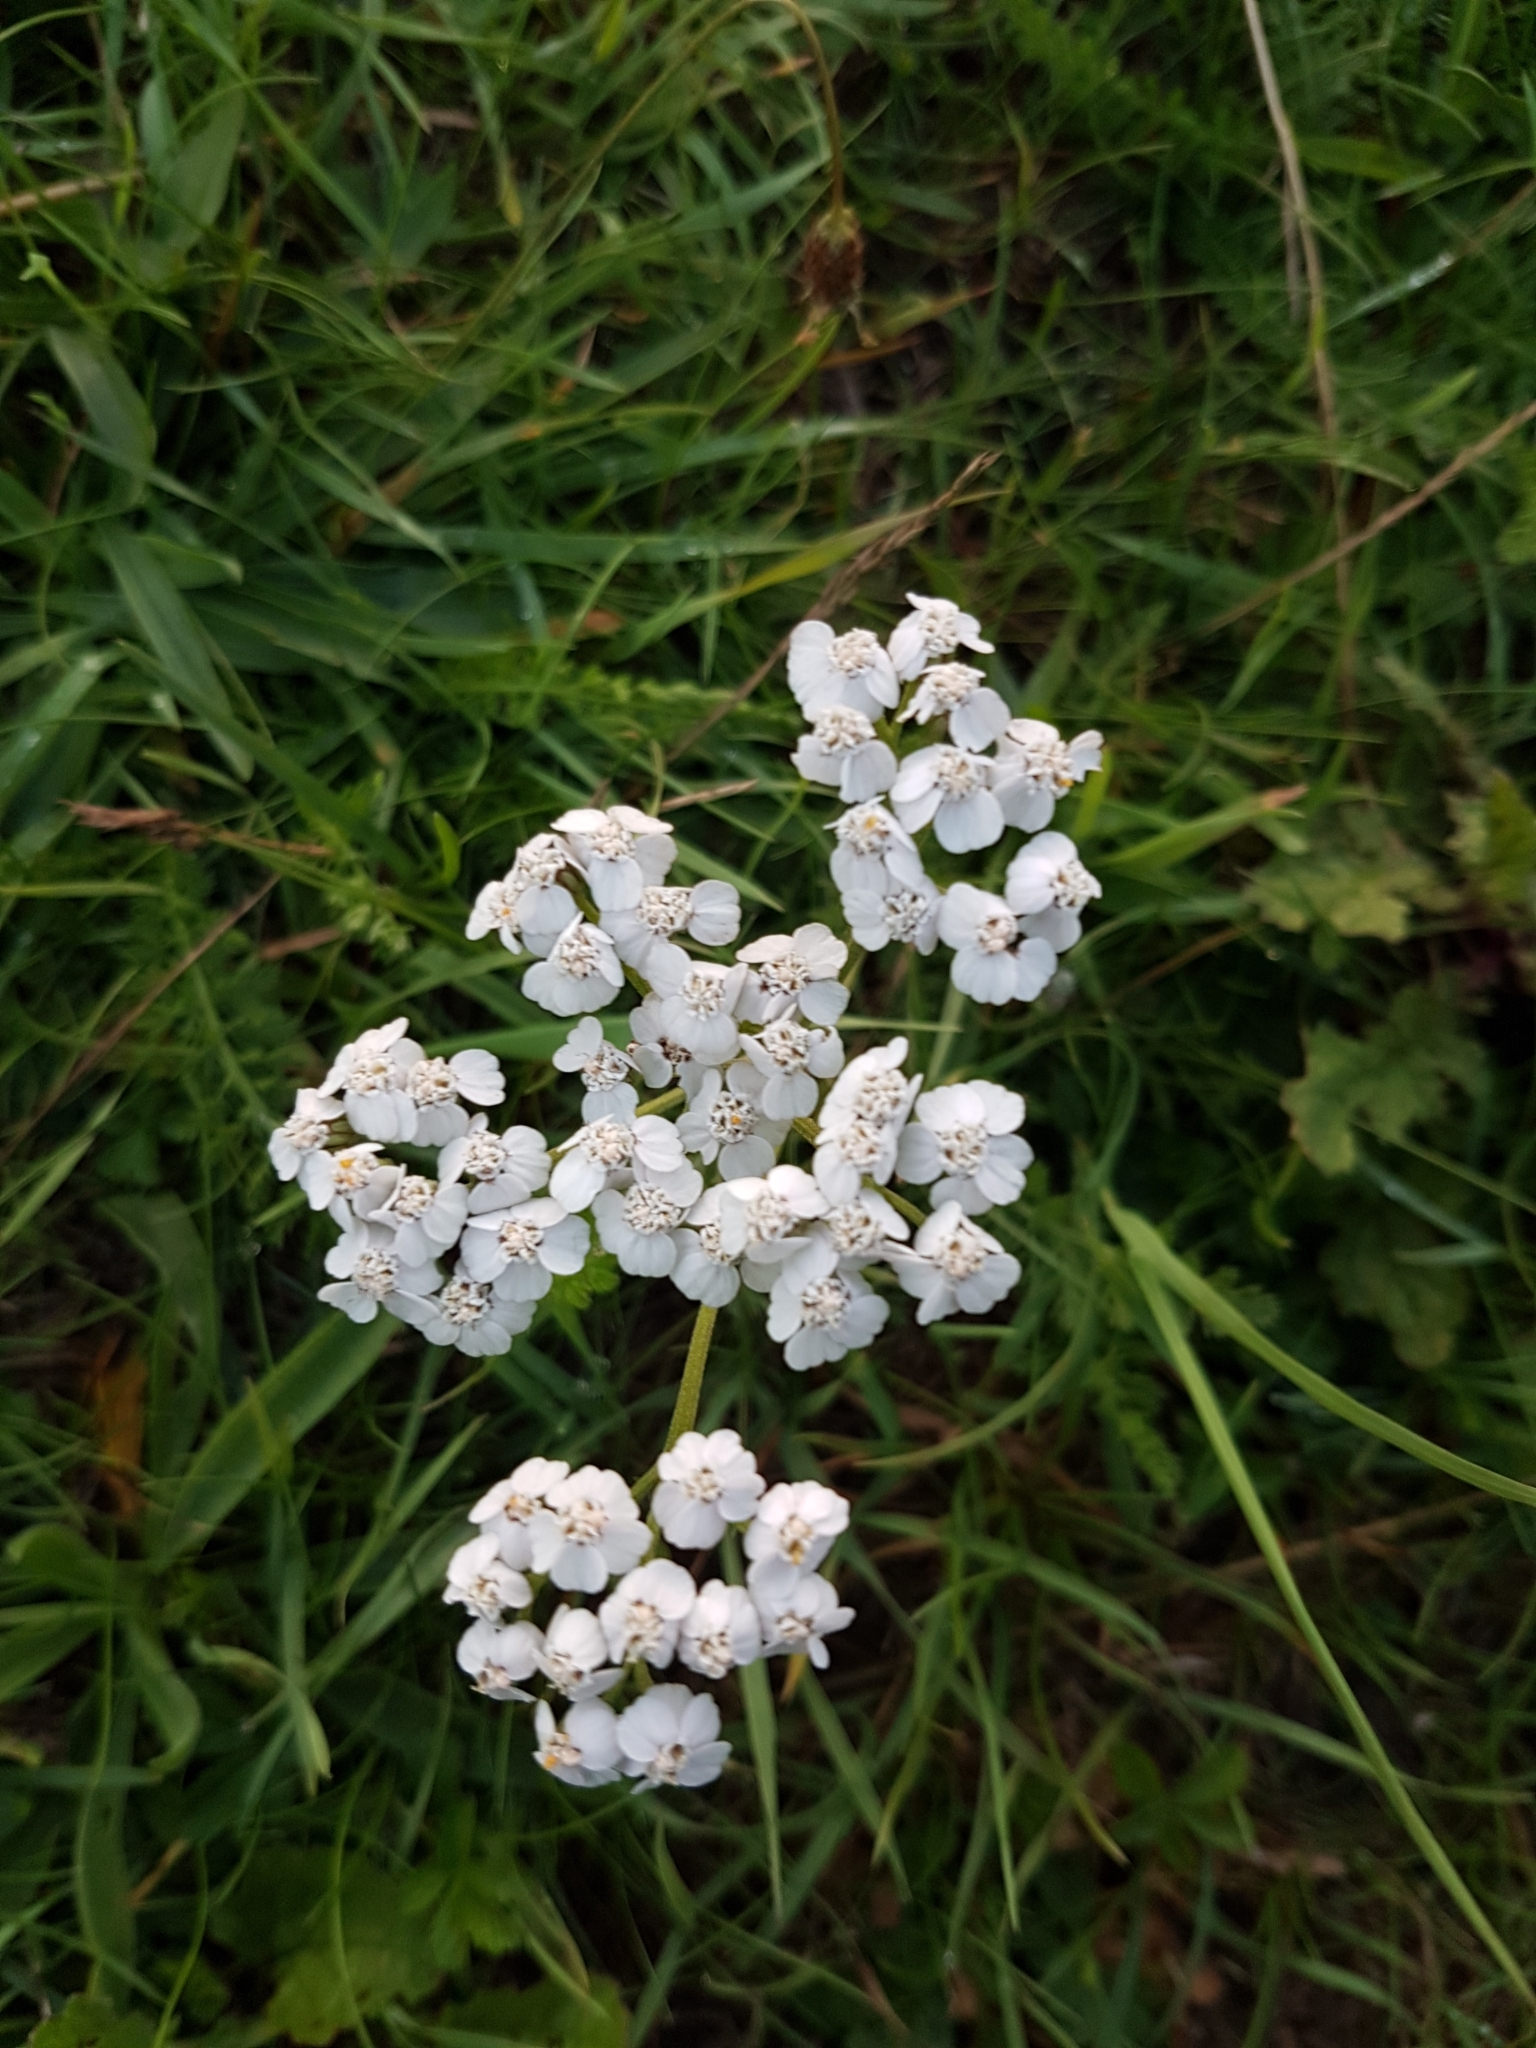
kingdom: Plantae
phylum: Tracheophyta
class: Magnoliopsida
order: Asterales
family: Asteraceae
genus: Achillea
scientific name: Achillea millefolium
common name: Yarrow
